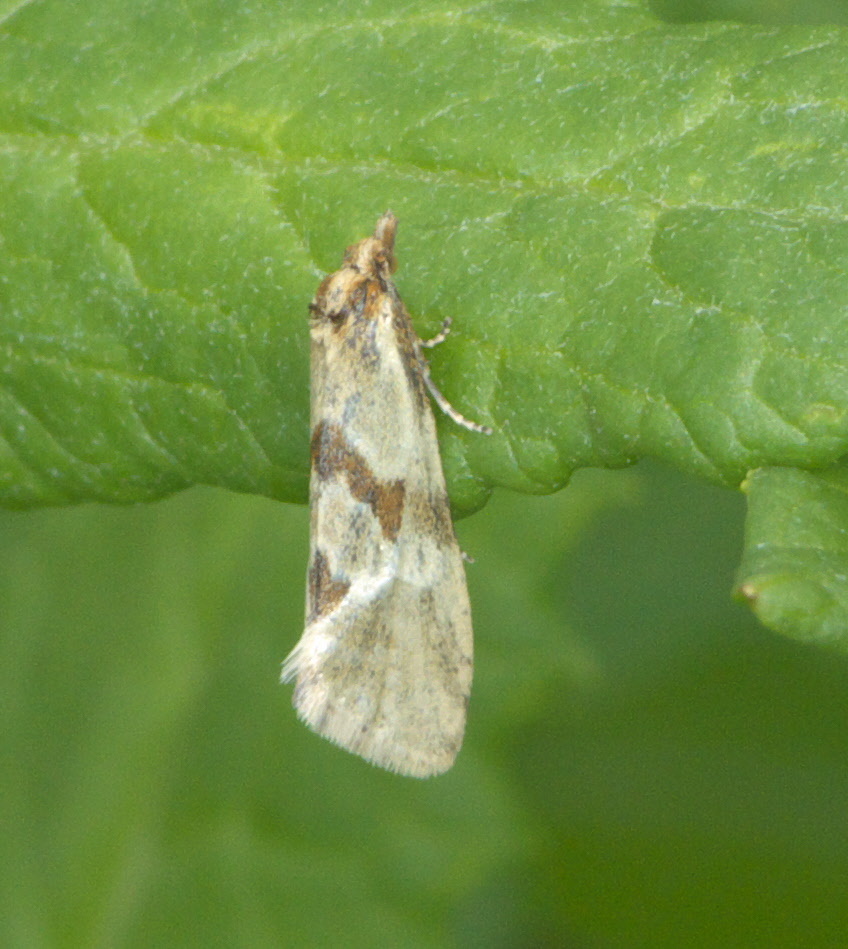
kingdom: Animalia
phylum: Arthropoda
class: Insecta
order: Lepidoptera
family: Tortricidae
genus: Aethes
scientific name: Aethes smeathmanniana
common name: Yarrow conch
